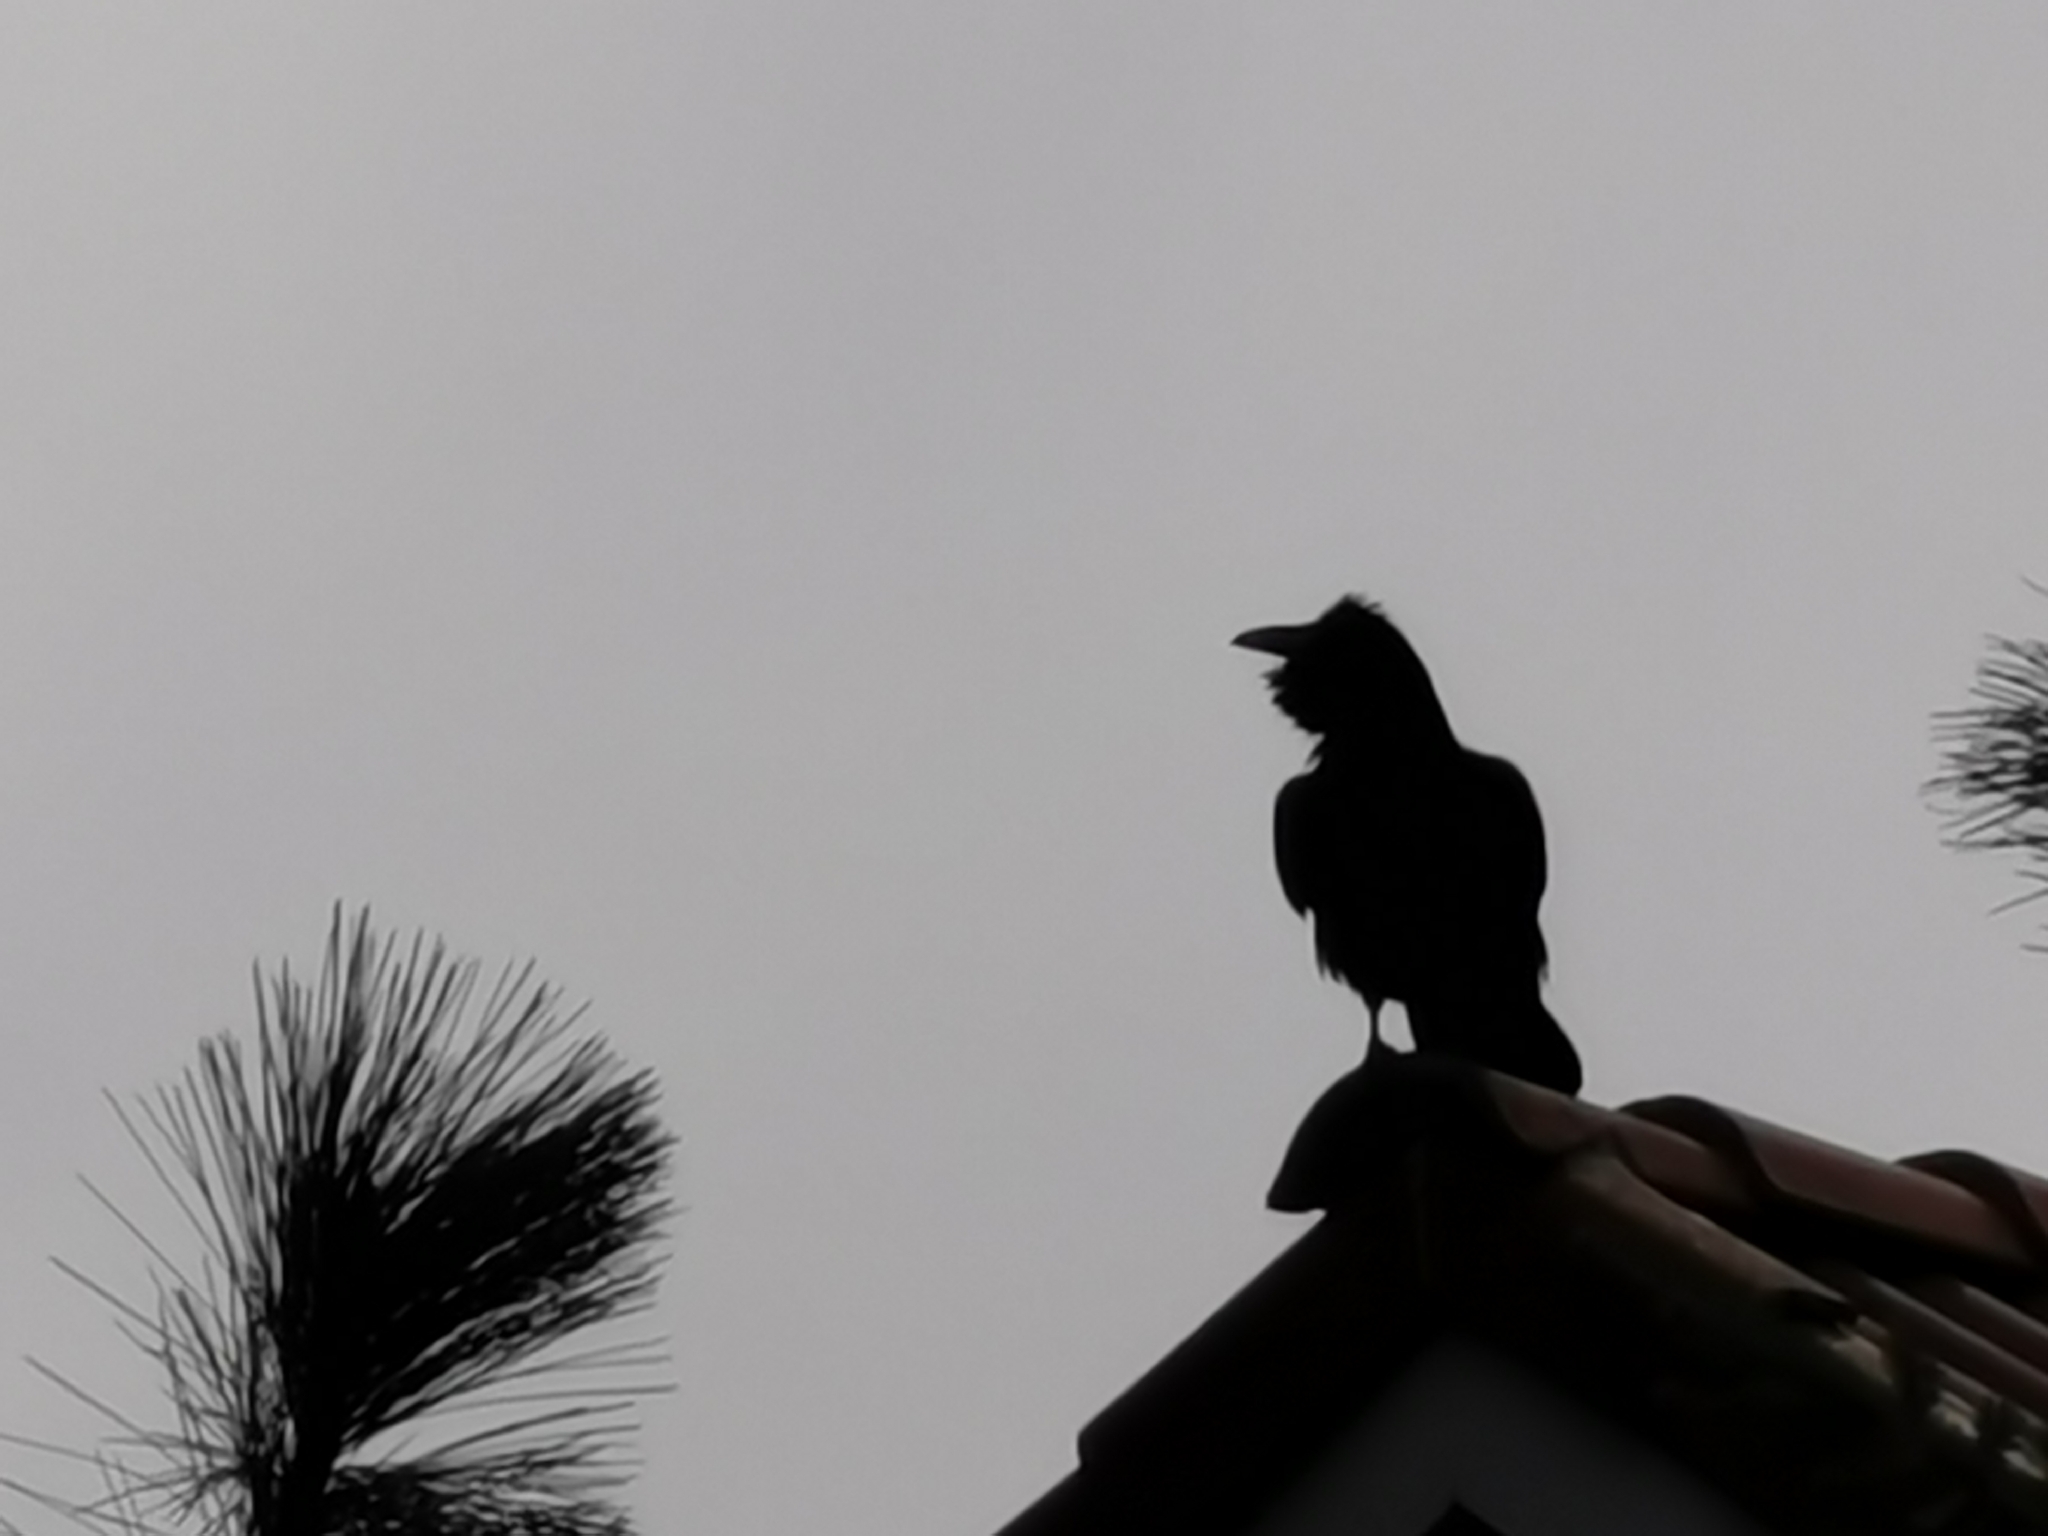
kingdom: Animalia
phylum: Chordata
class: Aves
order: Passeriformes
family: Corvidae
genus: Corvus
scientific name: Corvus corax
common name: Common raven
